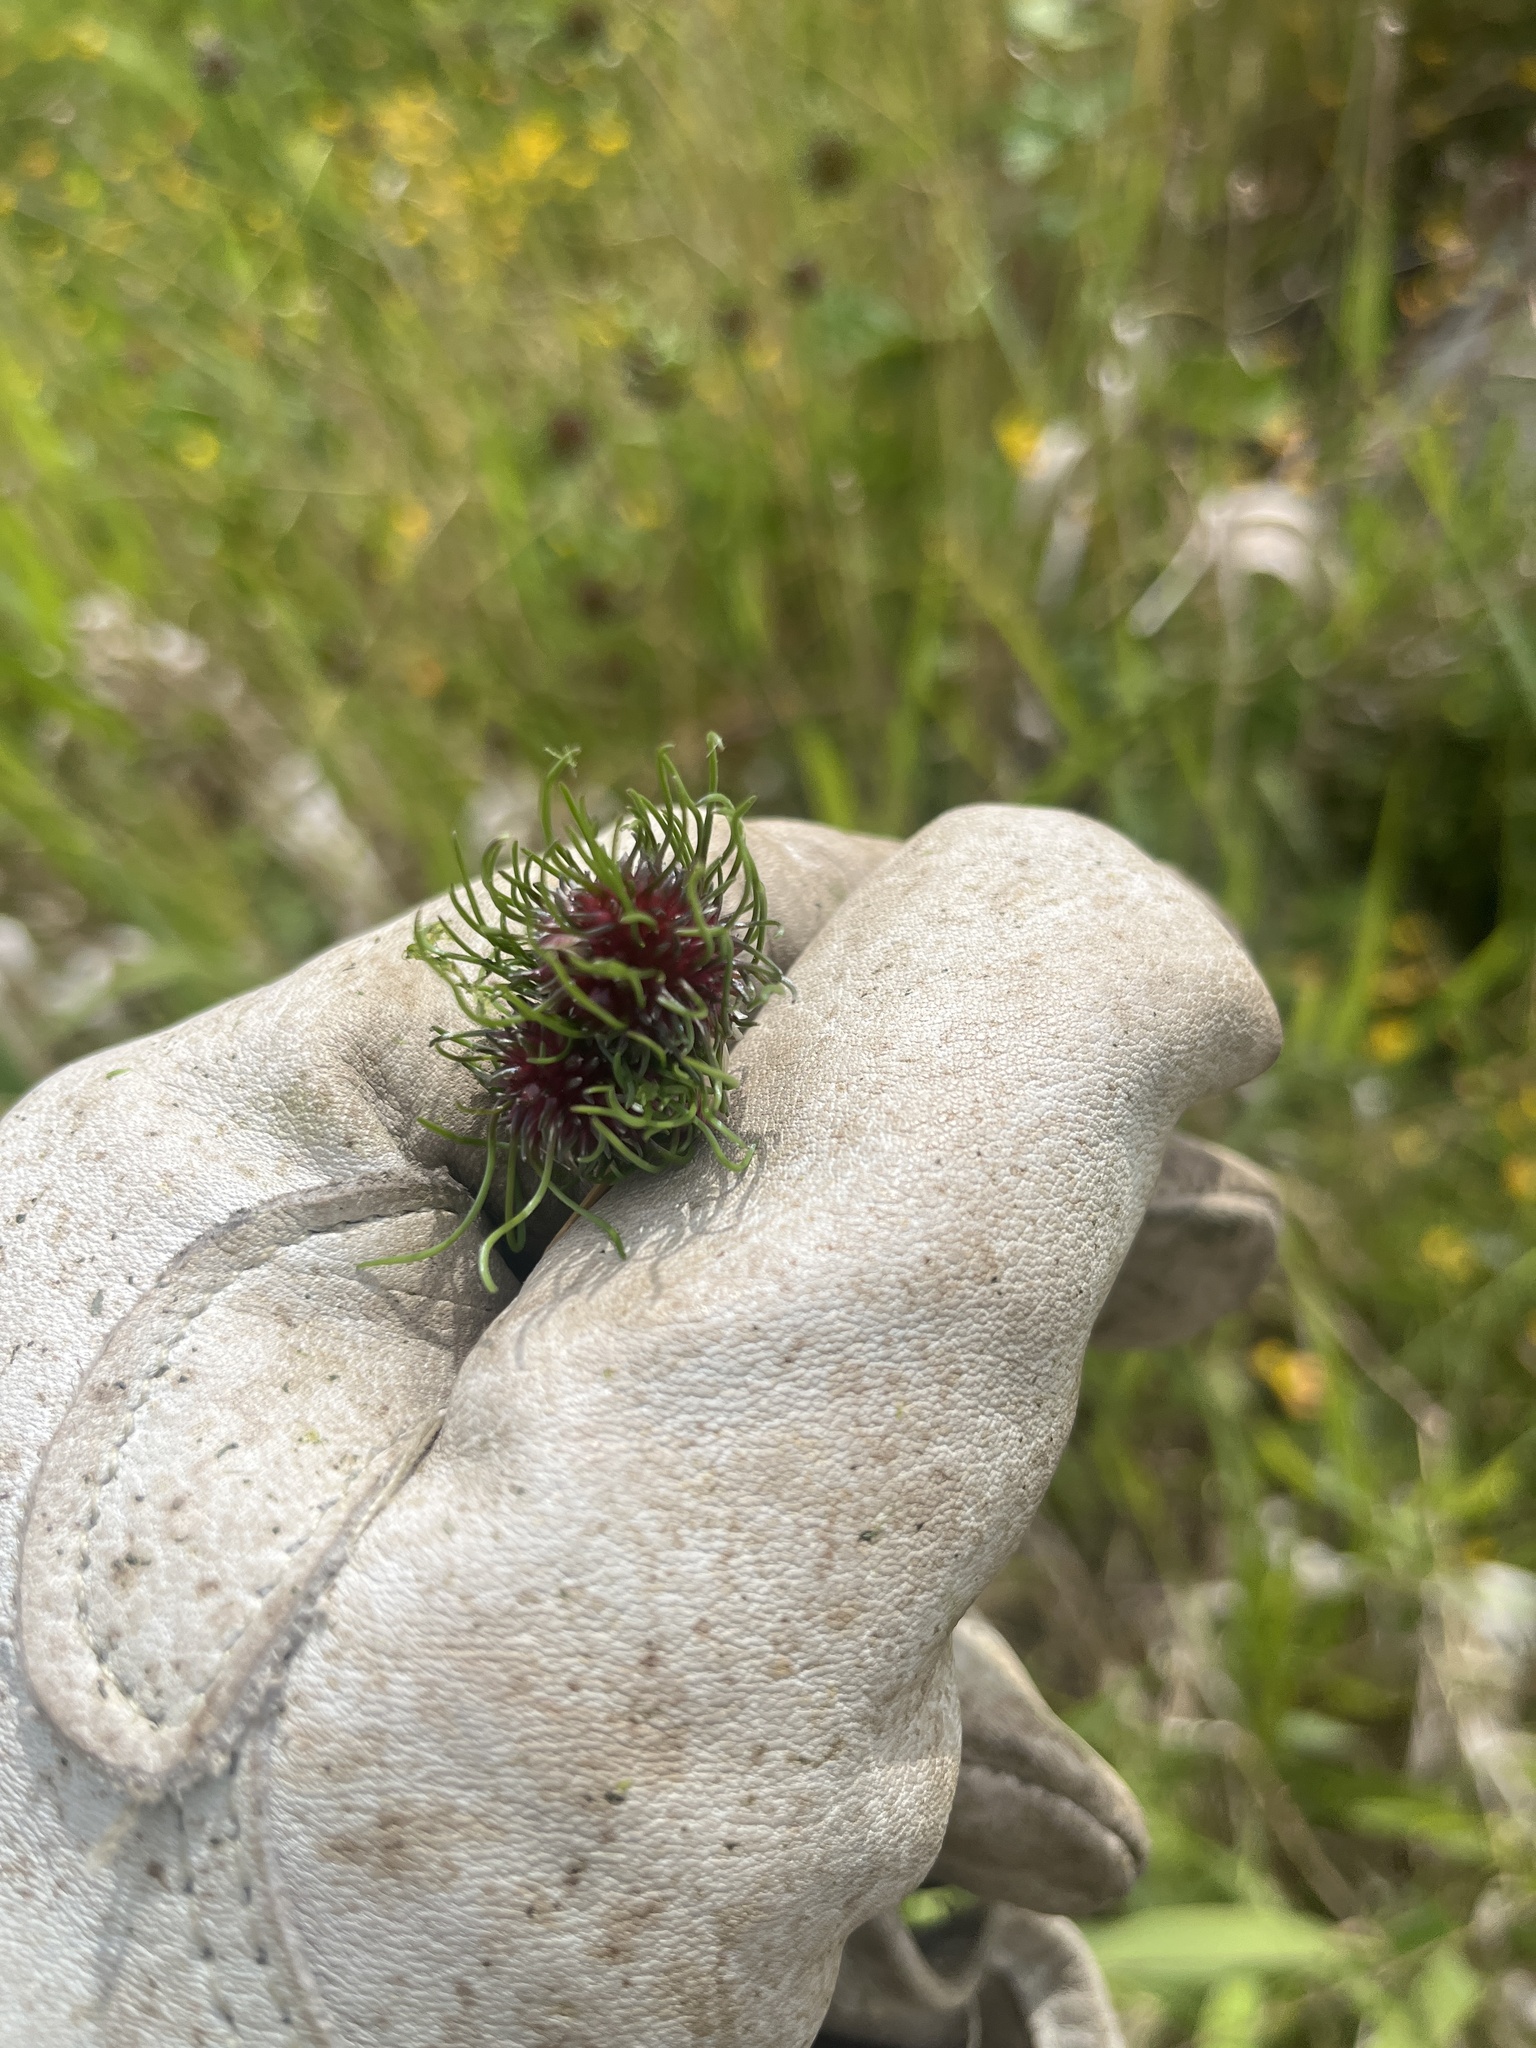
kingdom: Plantae
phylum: Tracheophyta
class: Liliopsida
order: Asparagales
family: Amaryllidaceae
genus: Allium
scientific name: Allium vineale
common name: Crow garlic
